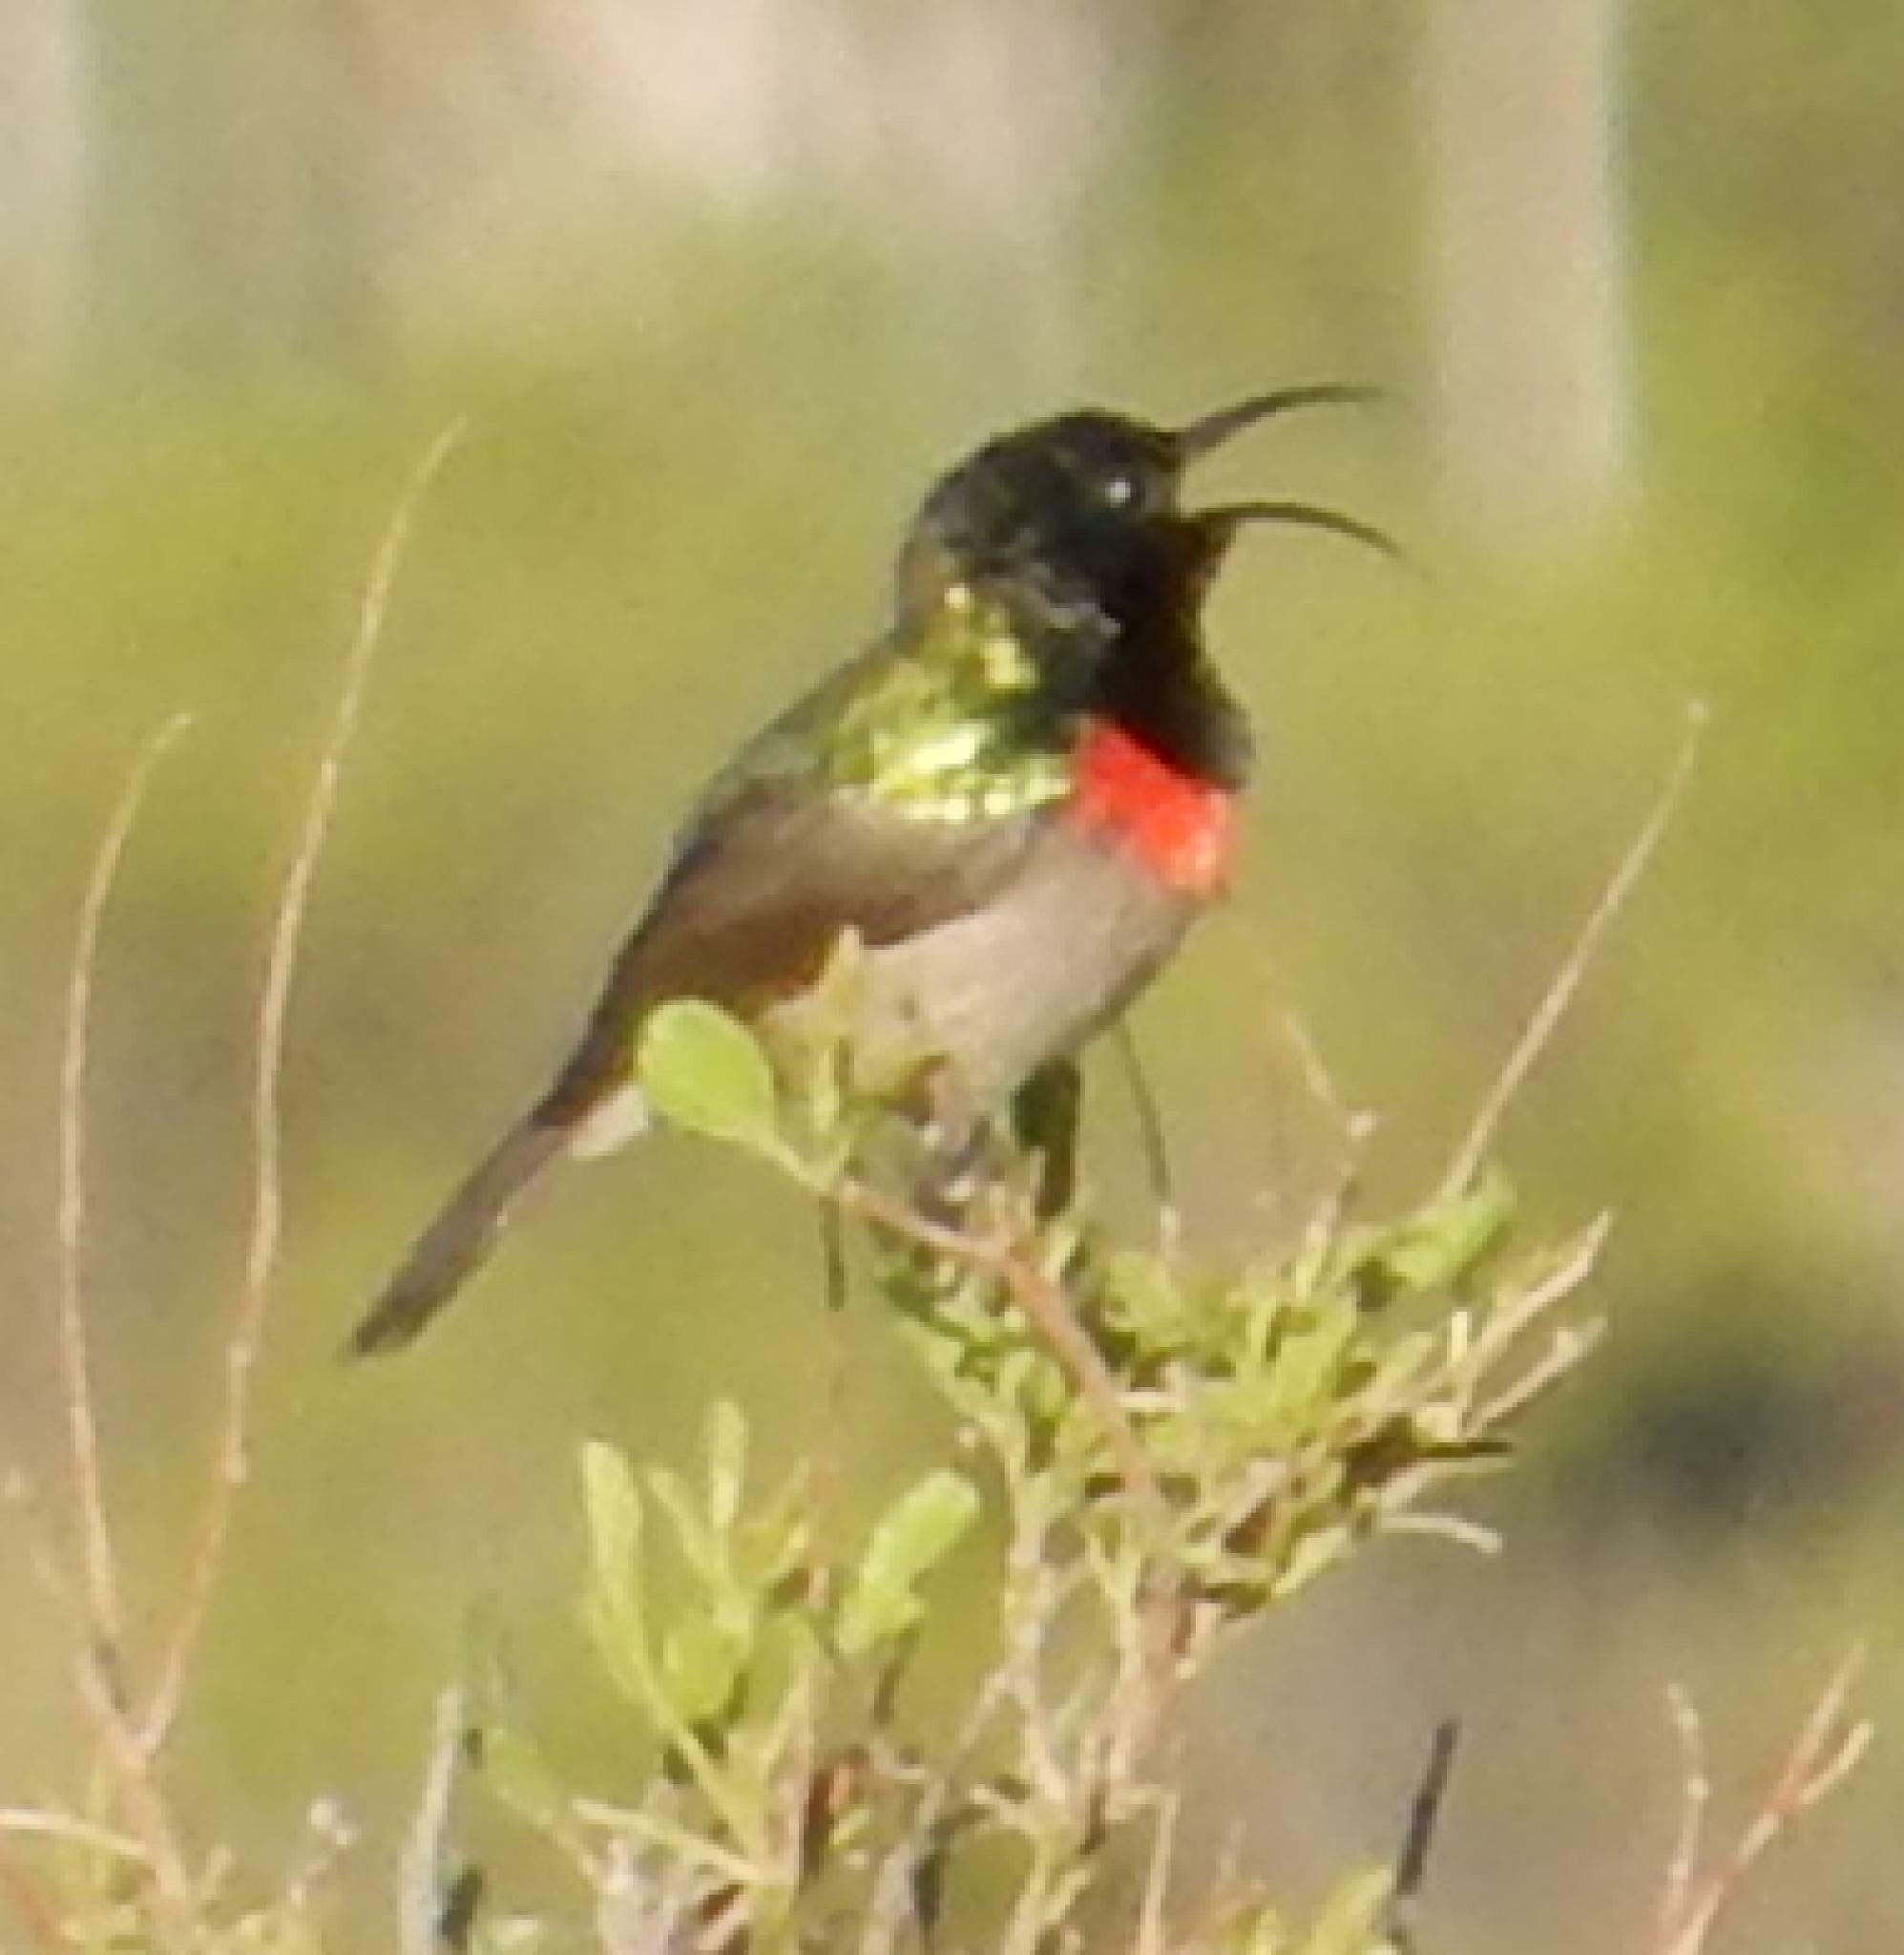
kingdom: Animalia
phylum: Chordata
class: Aves
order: Passeriformes
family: Nectariniidae
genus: Cinnyris
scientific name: Cinnyris chalybeus
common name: Southern double-collared sunbird
